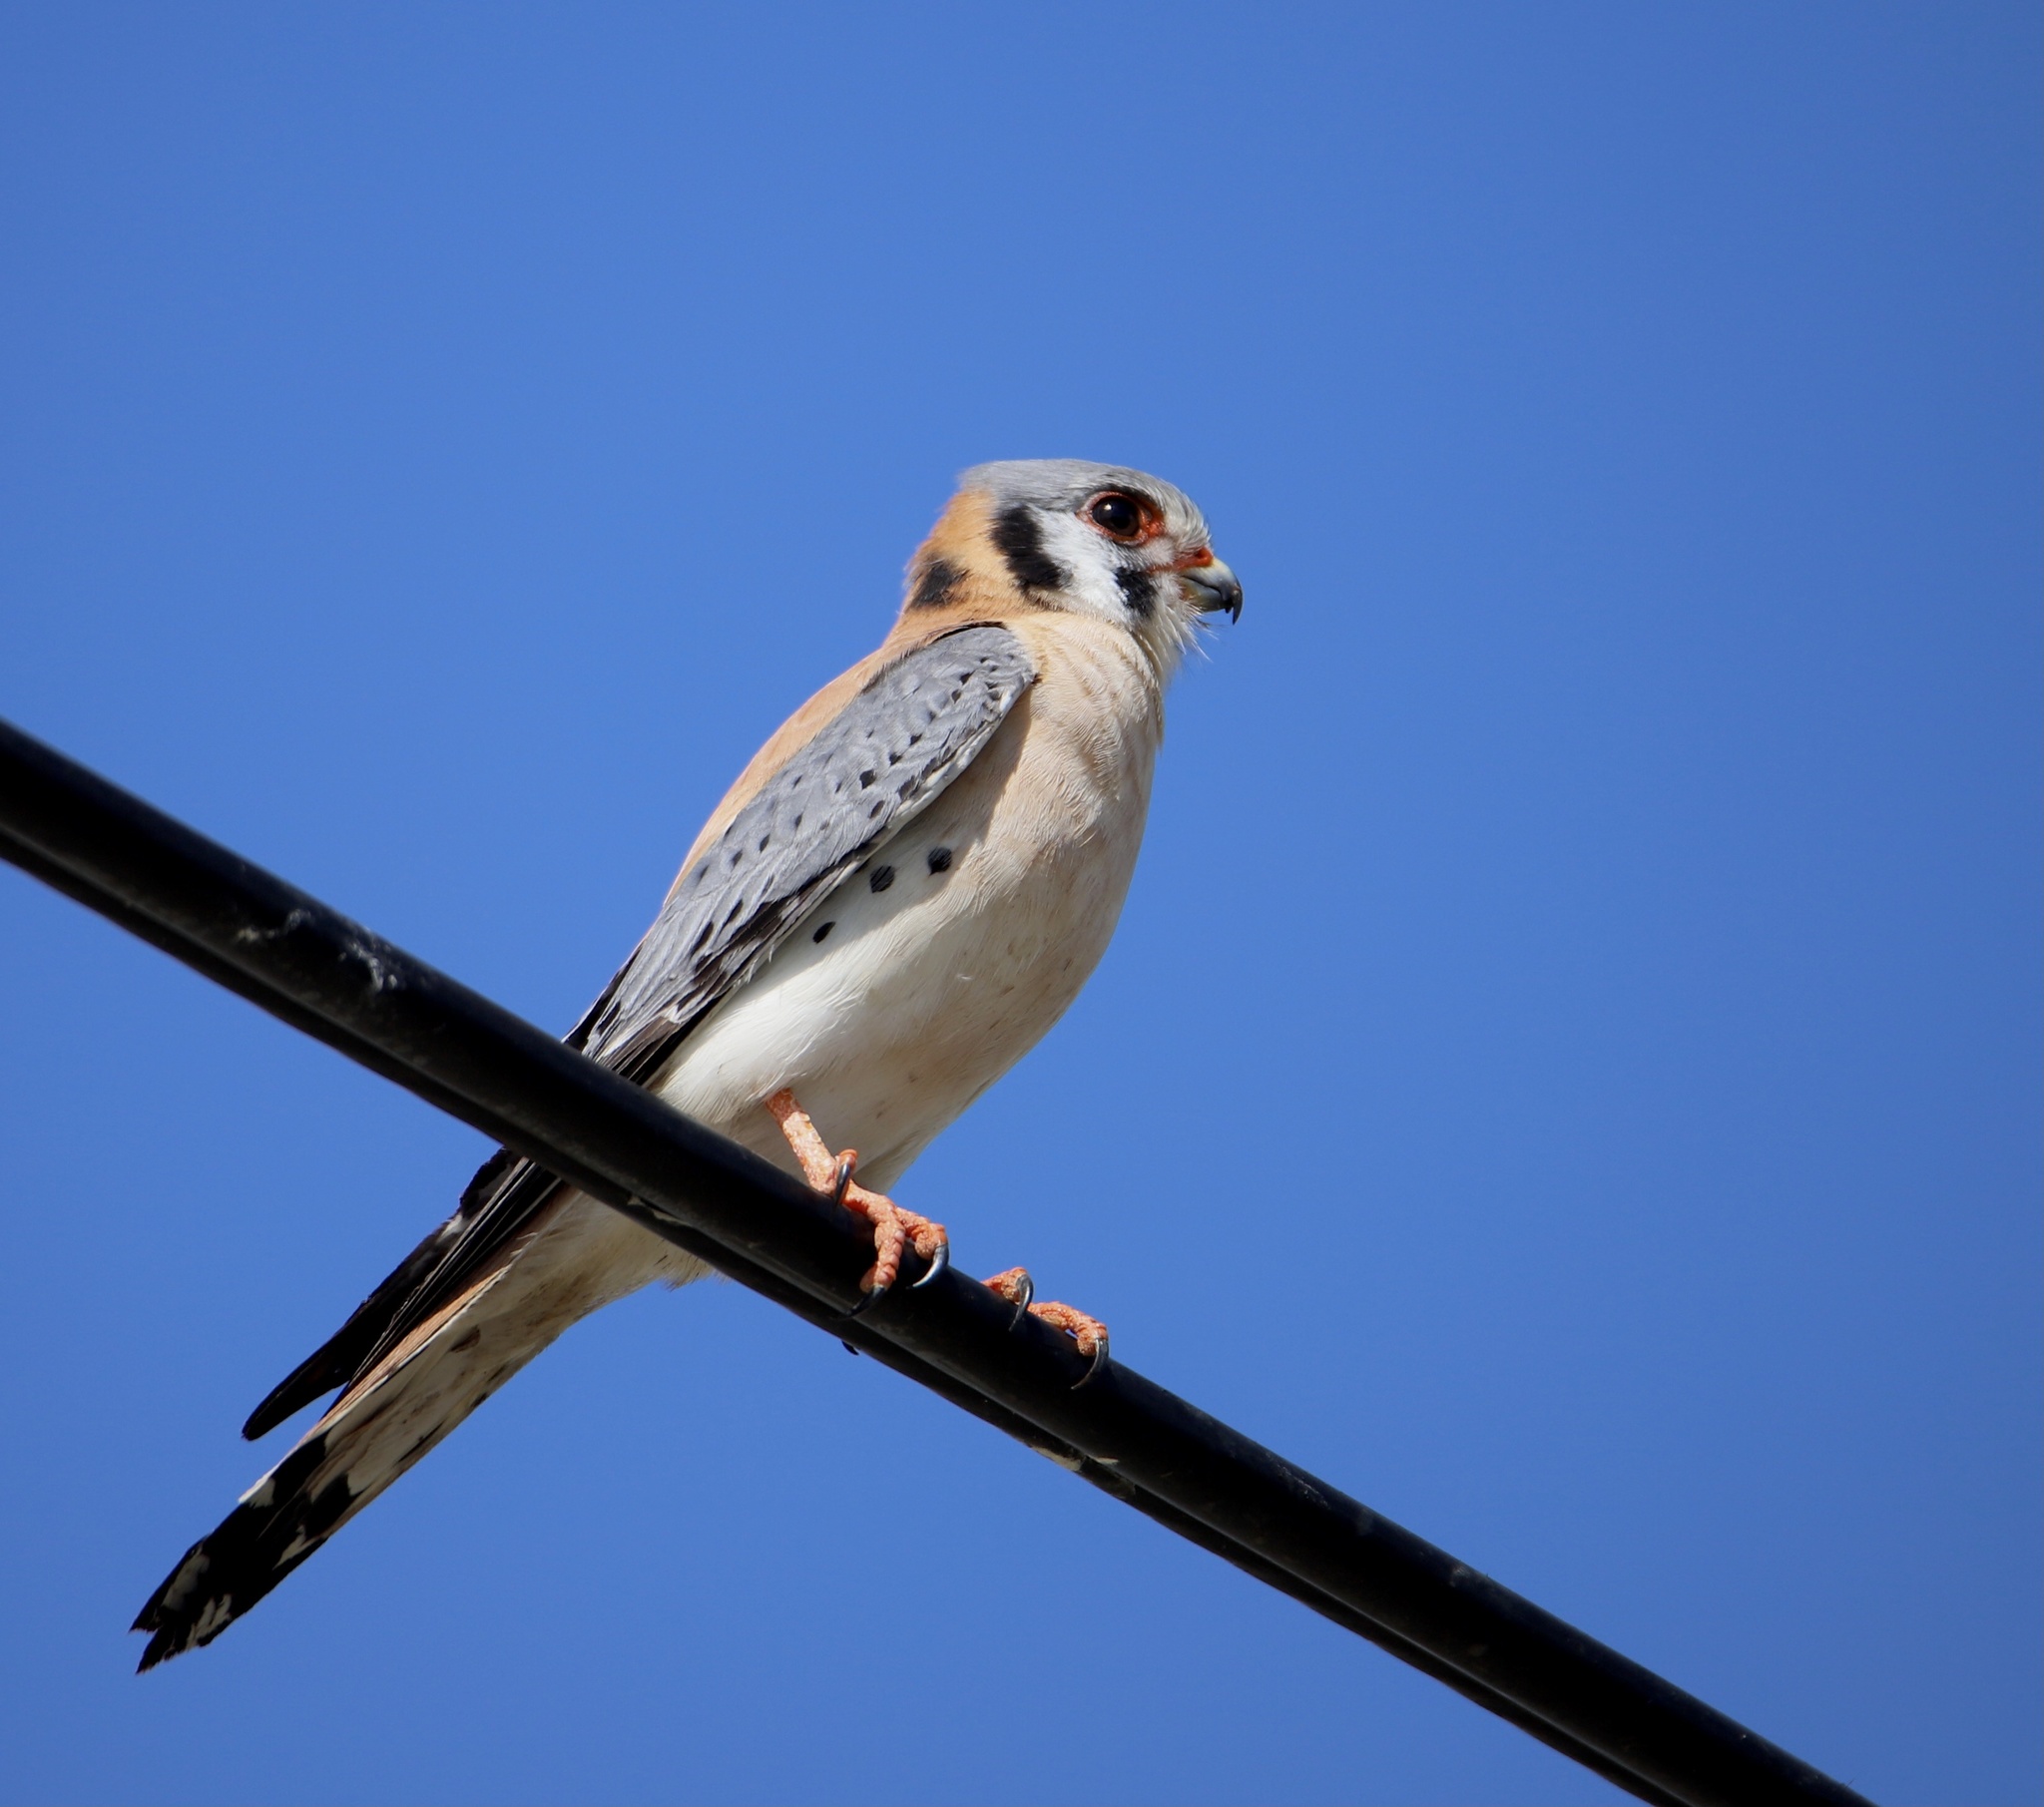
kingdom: Animalia
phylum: Chordata
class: Aves
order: Falconiformes
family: Falconidae
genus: Falco
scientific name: Falco sparverius
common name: American kestrel
